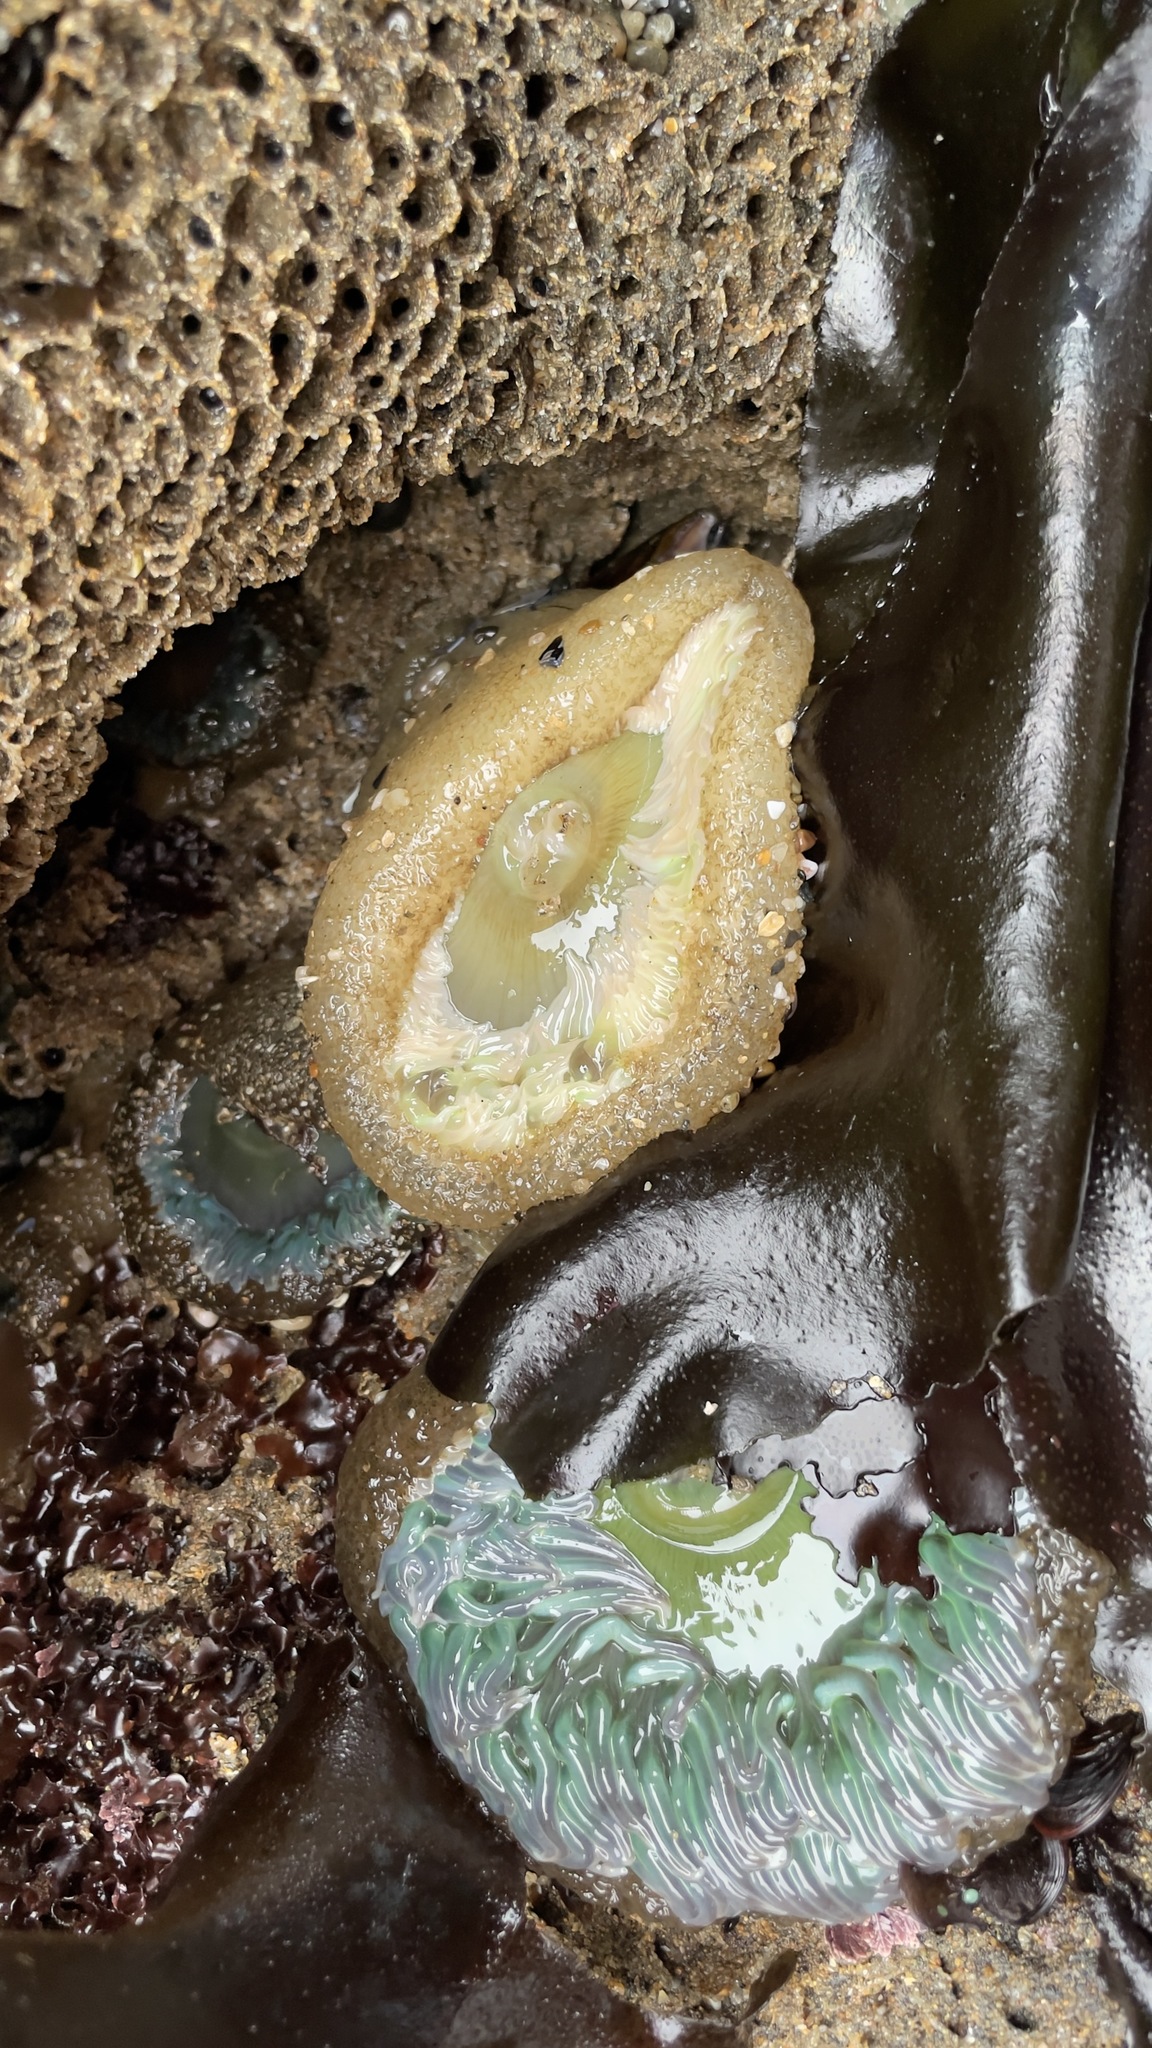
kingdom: Animalia
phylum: Cnidaria
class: Anthozoa
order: Actiniaria
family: Actiniidae
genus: Anthopleura
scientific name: Anthopleura xanthogrammica
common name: Giant green anemone
